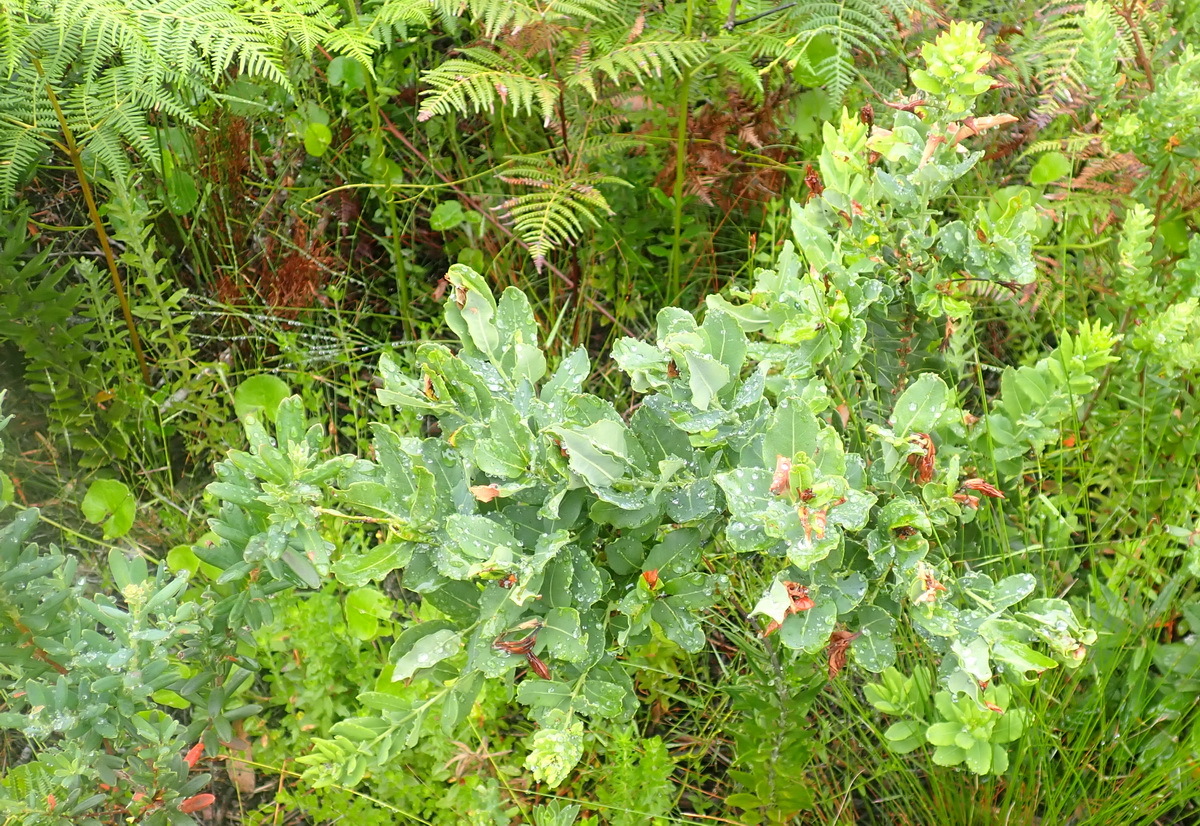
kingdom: Plantae
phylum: Tracheophyta
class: Magnoliopsida
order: Fagales
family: Myricaceae
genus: Morella
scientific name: Morella humilis
